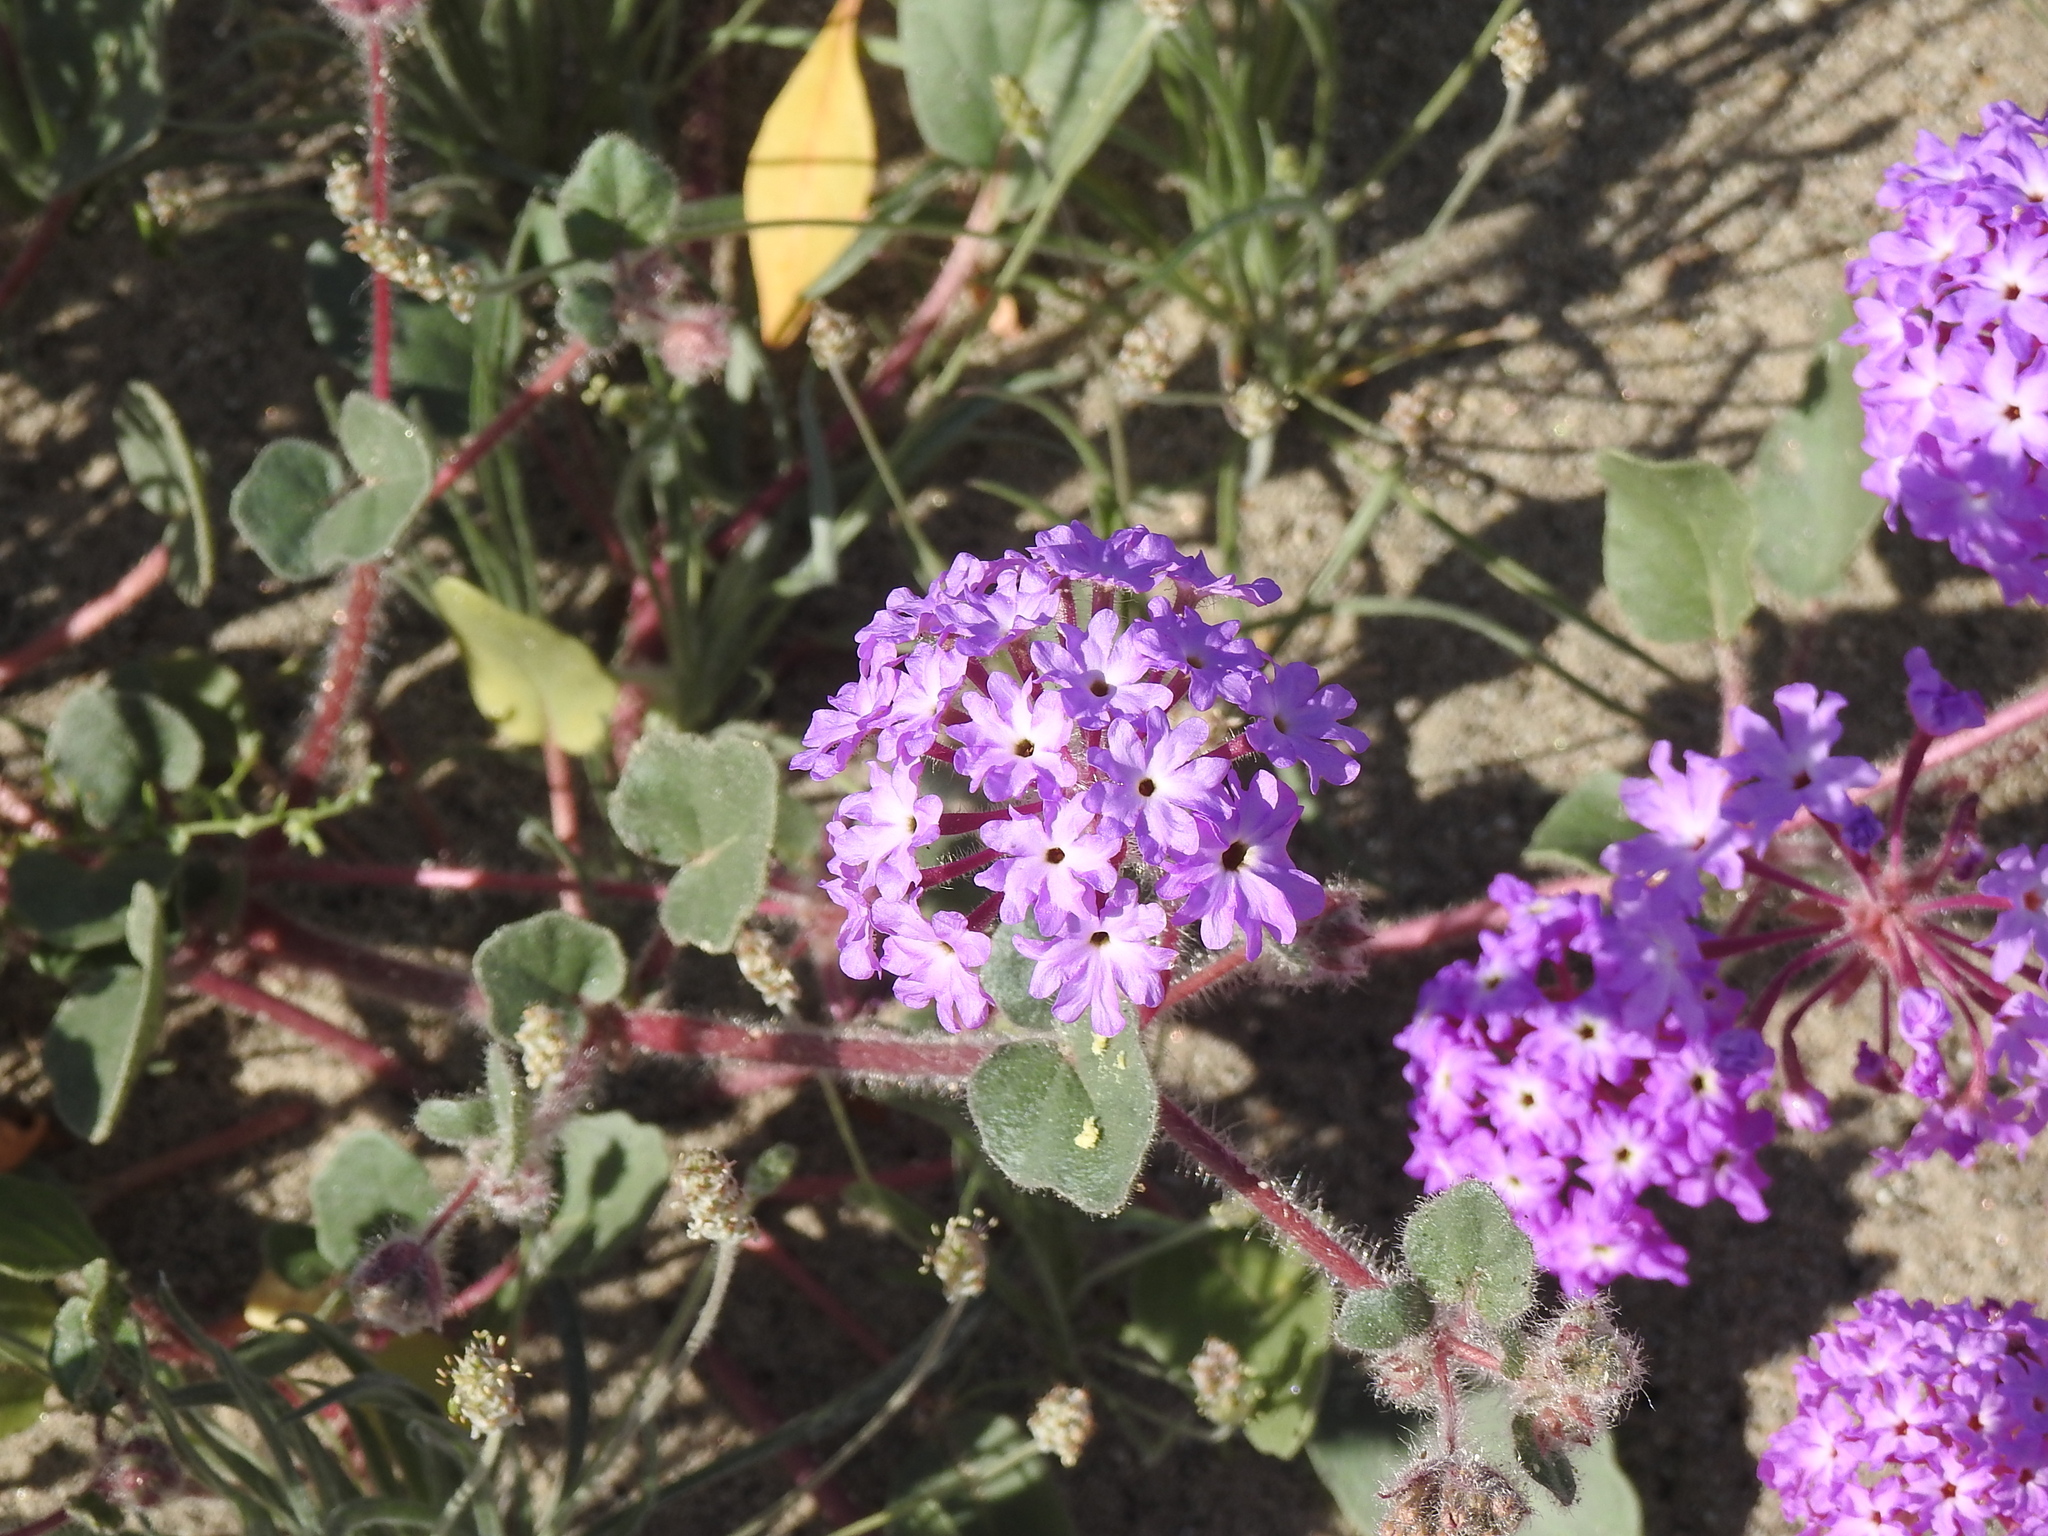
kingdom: Plantae
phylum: Tracheophyta
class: Magnoliopsida
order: Caryophyllales
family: Nyctaginaceae
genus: Abronia
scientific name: Abronia villosa
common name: Desert sand-verbena
